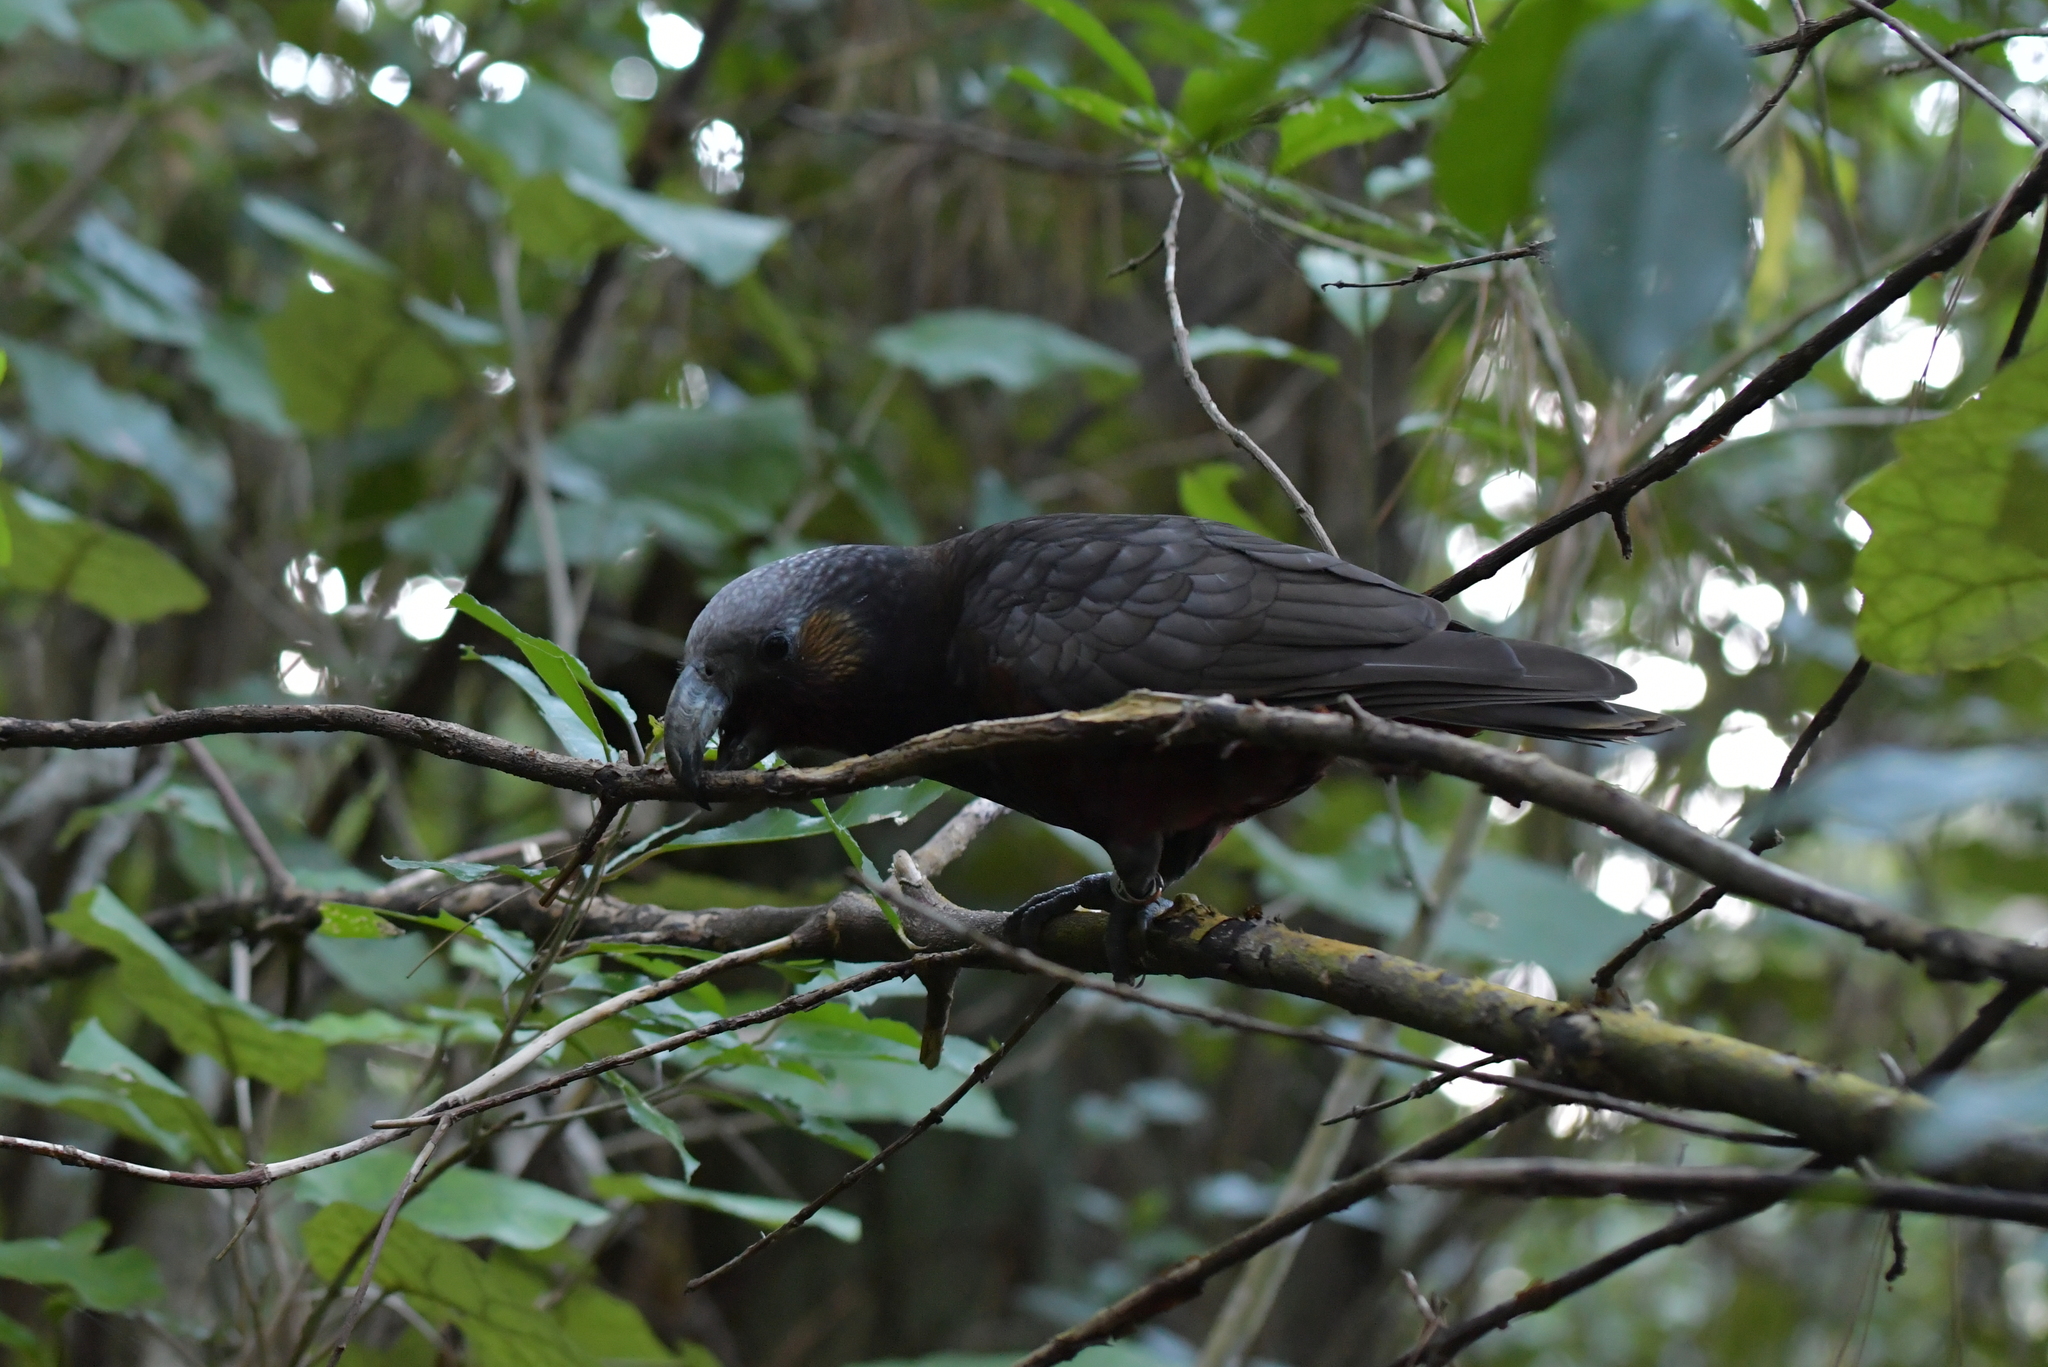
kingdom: Animalia
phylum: Chordata
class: Aves
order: Psittaciformes
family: Psittacidae
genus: Nestor
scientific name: Nestor meridionalis
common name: New zealand kaka
